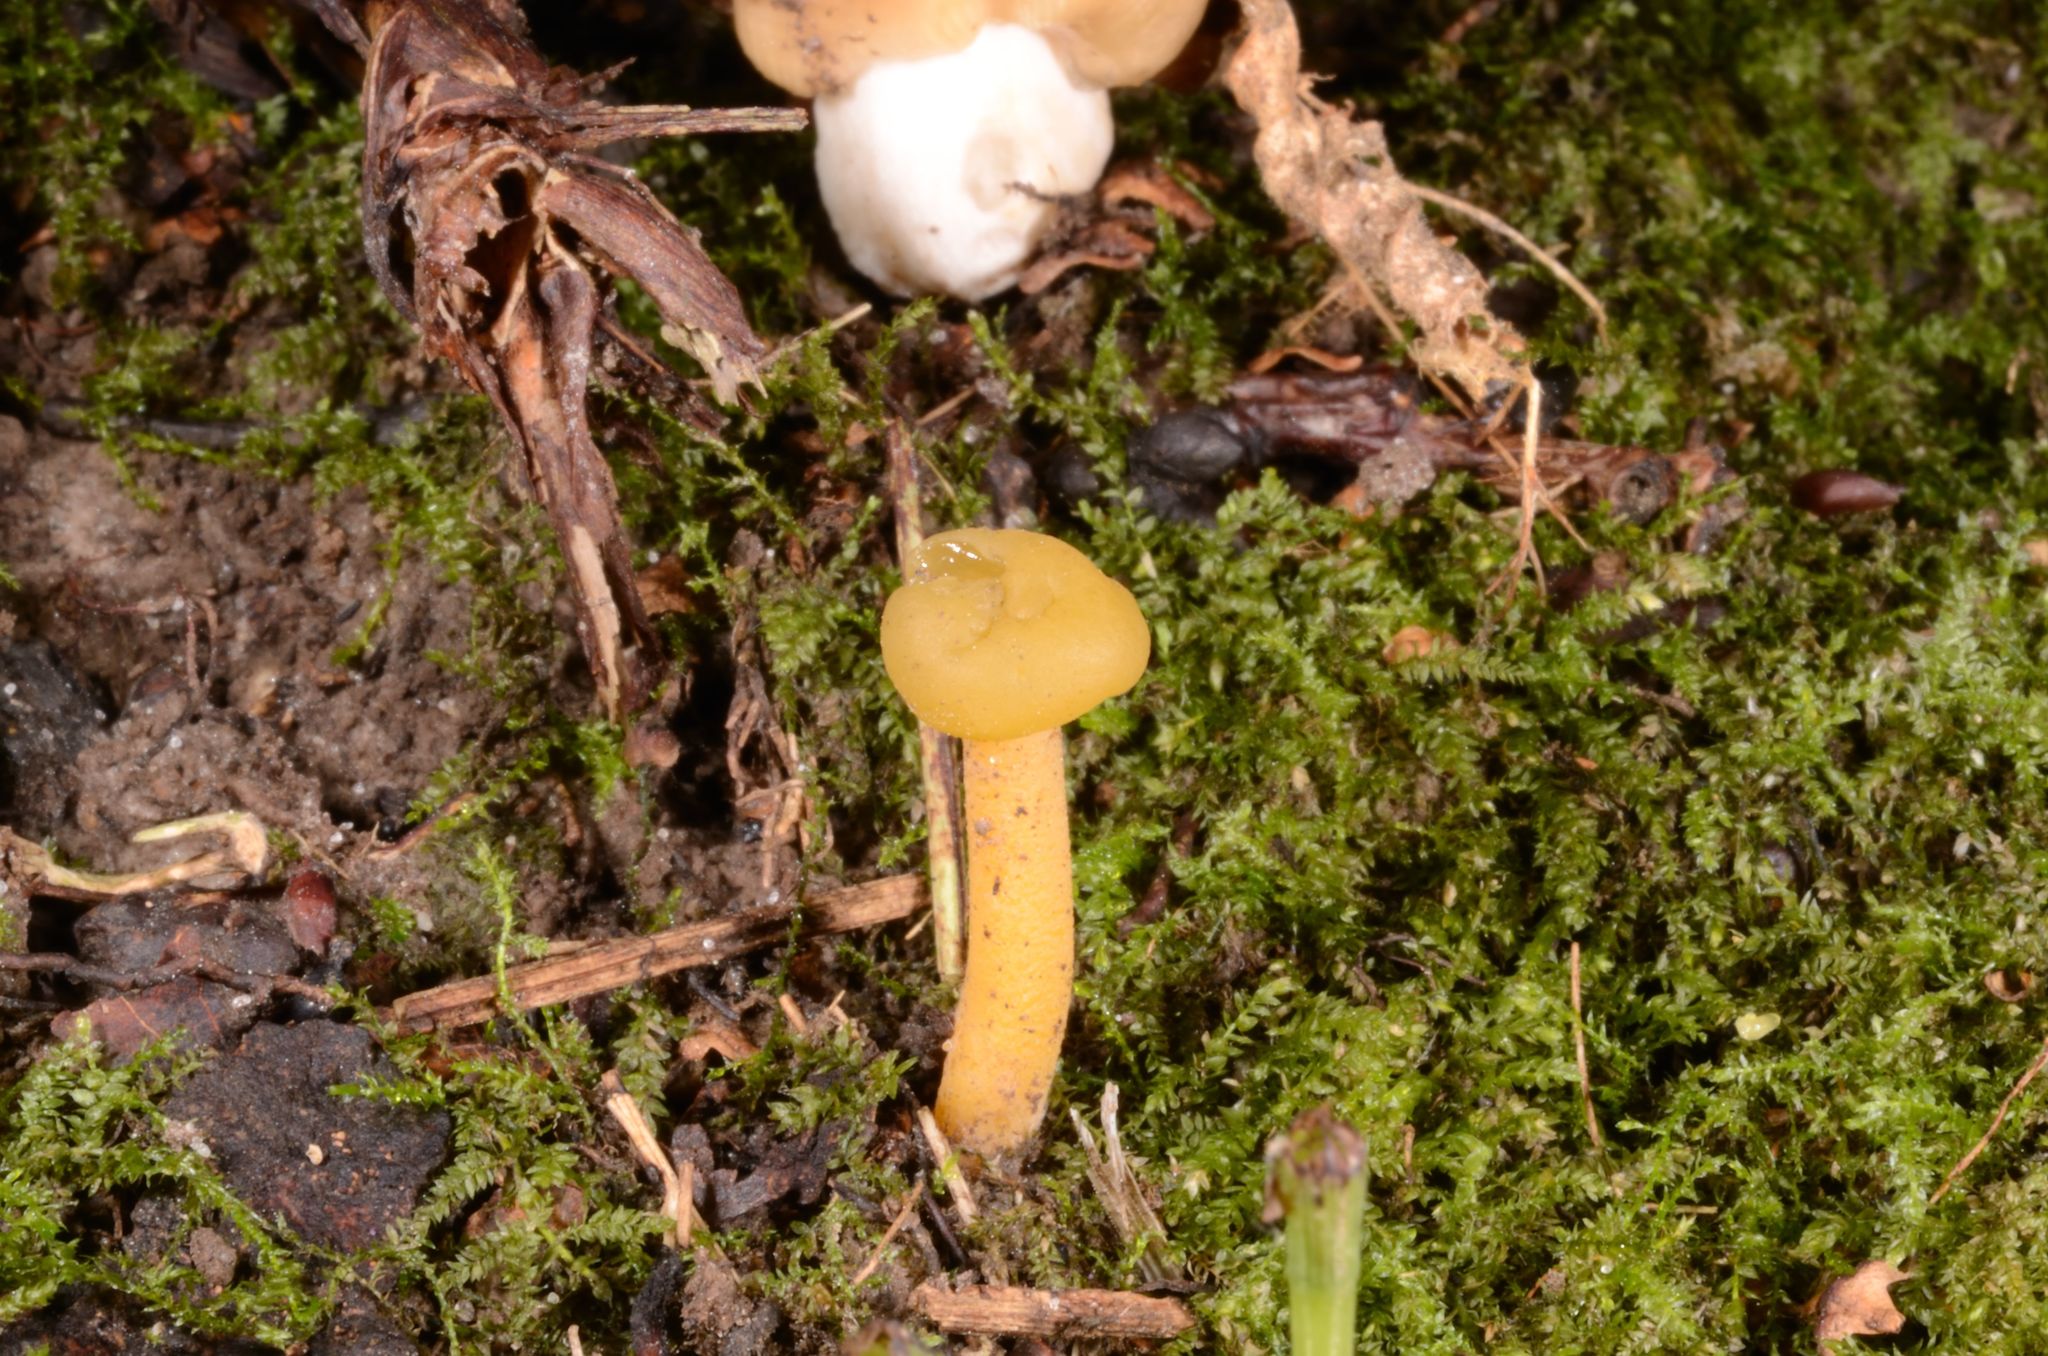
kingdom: Fungi
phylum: Ascomycota
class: Leotiomycetes
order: Leotiales
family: Leotiaceae
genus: Leotia
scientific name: Leotia lubrica
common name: Jellybaby
